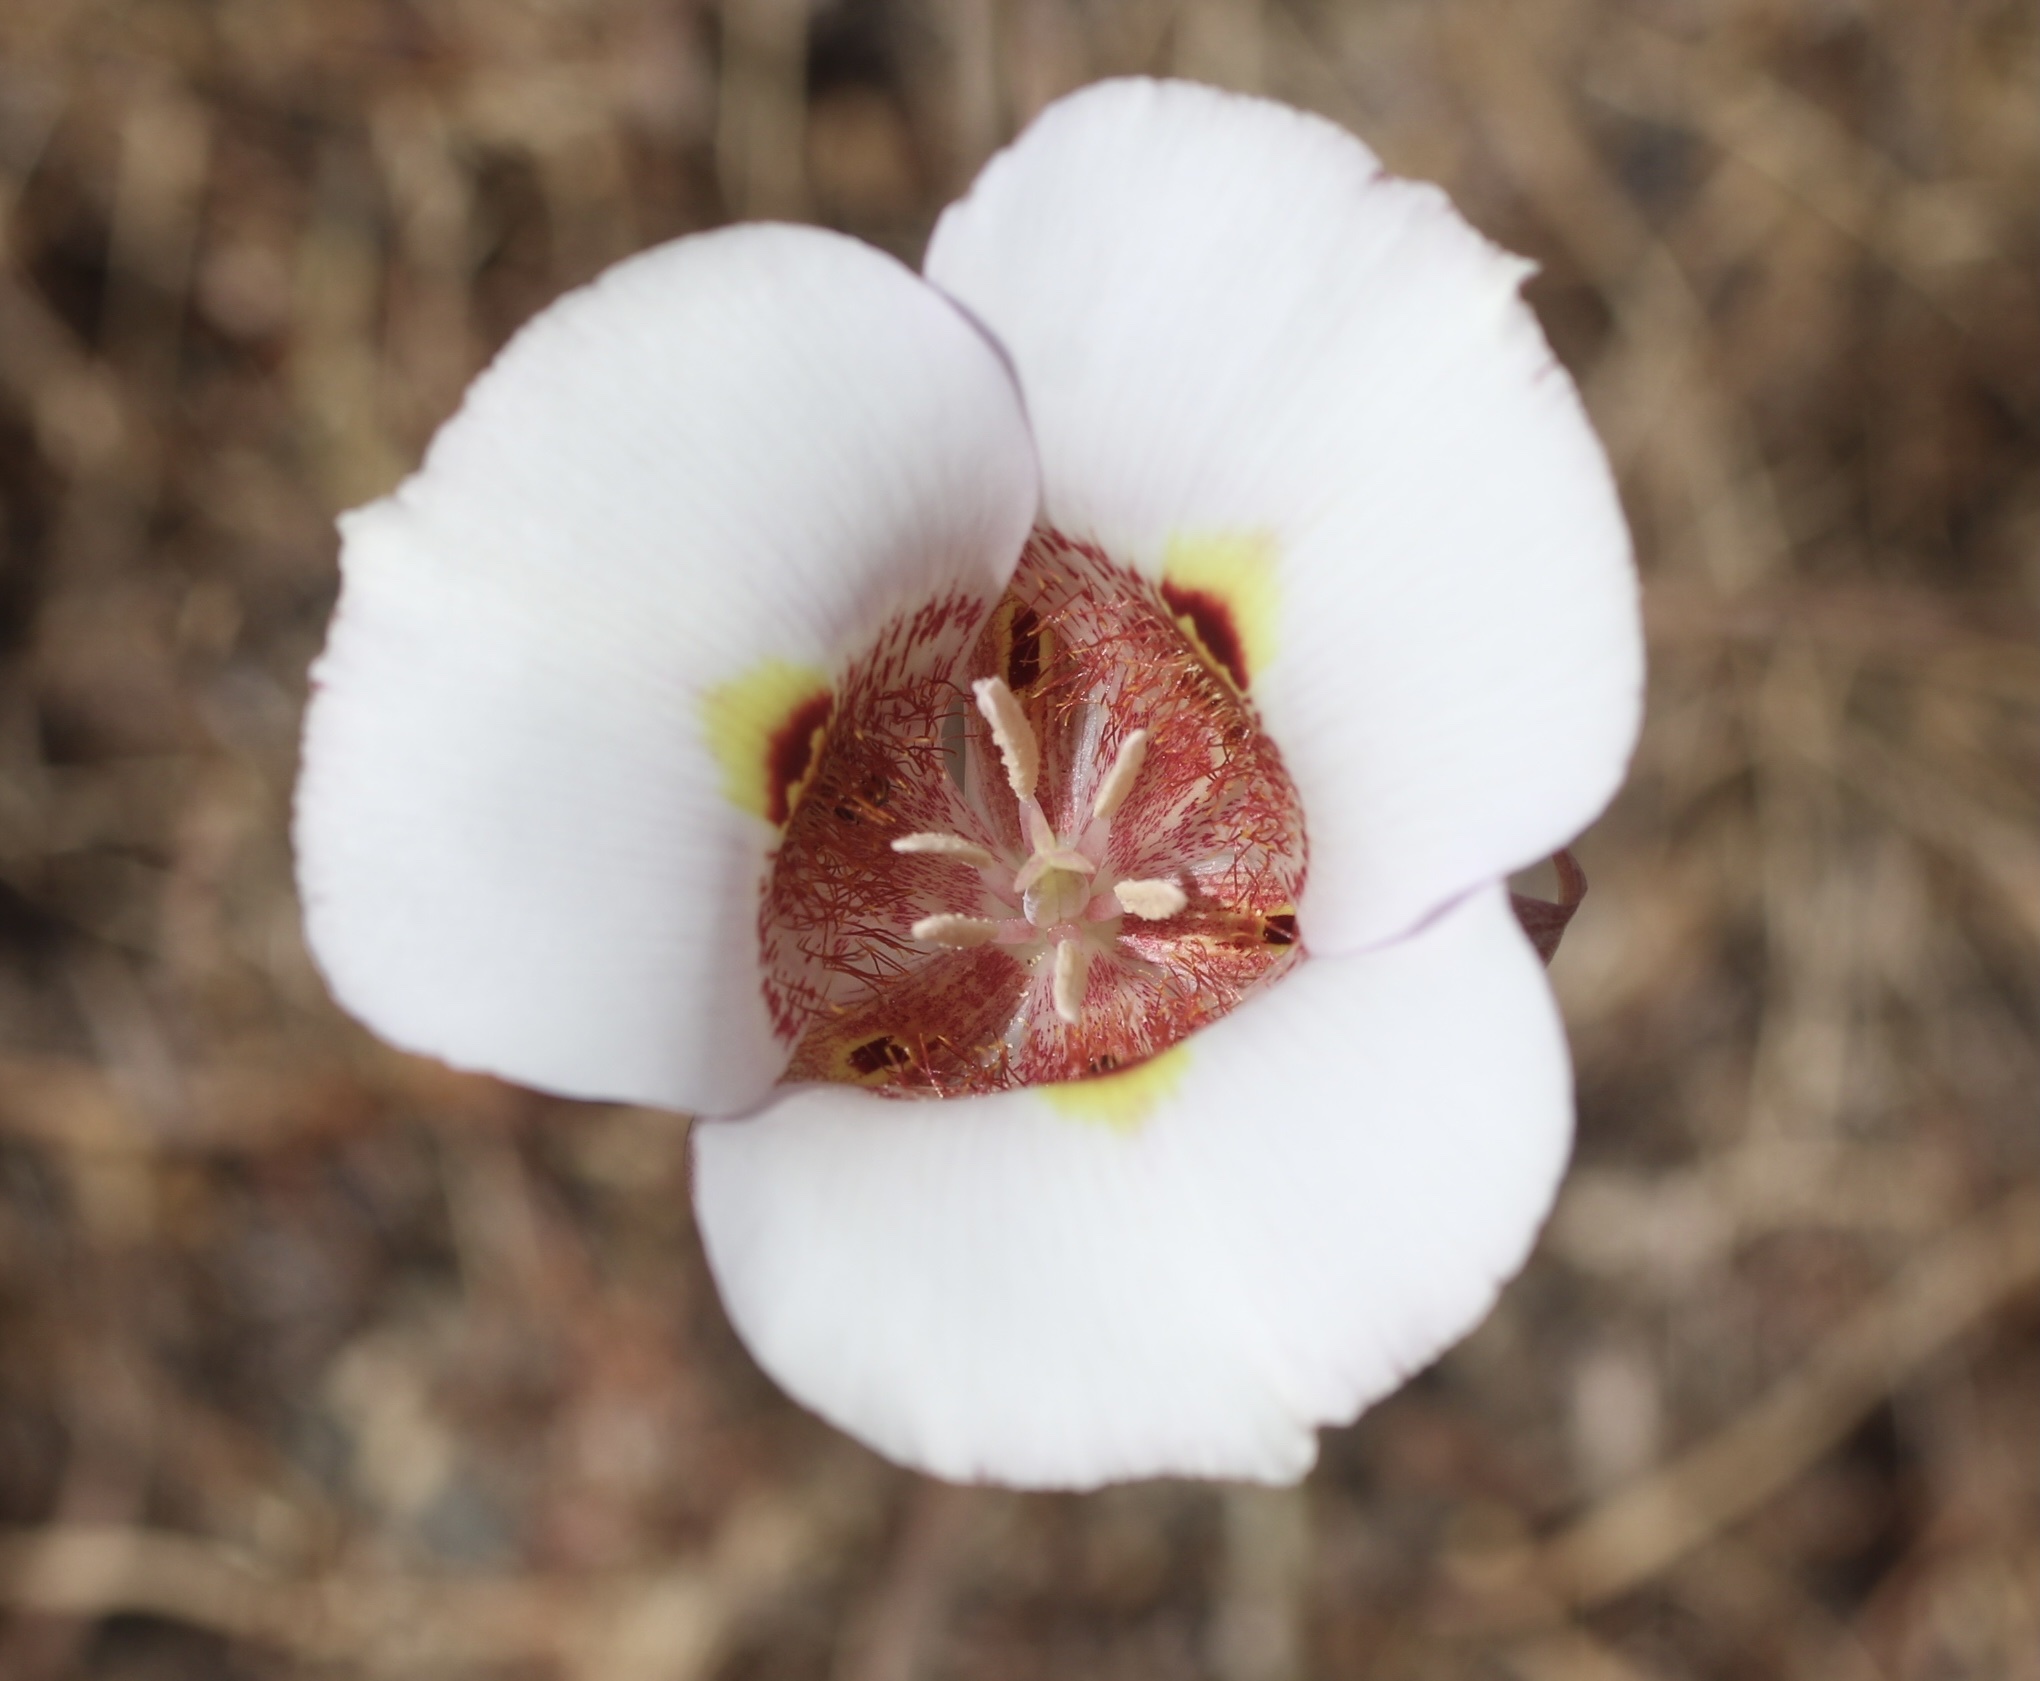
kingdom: Plantae
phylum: Tracheophyta
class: Liliopsida
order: Liliales
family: Liliaceae
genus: Calochortus
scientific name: Calochortus argillosus
